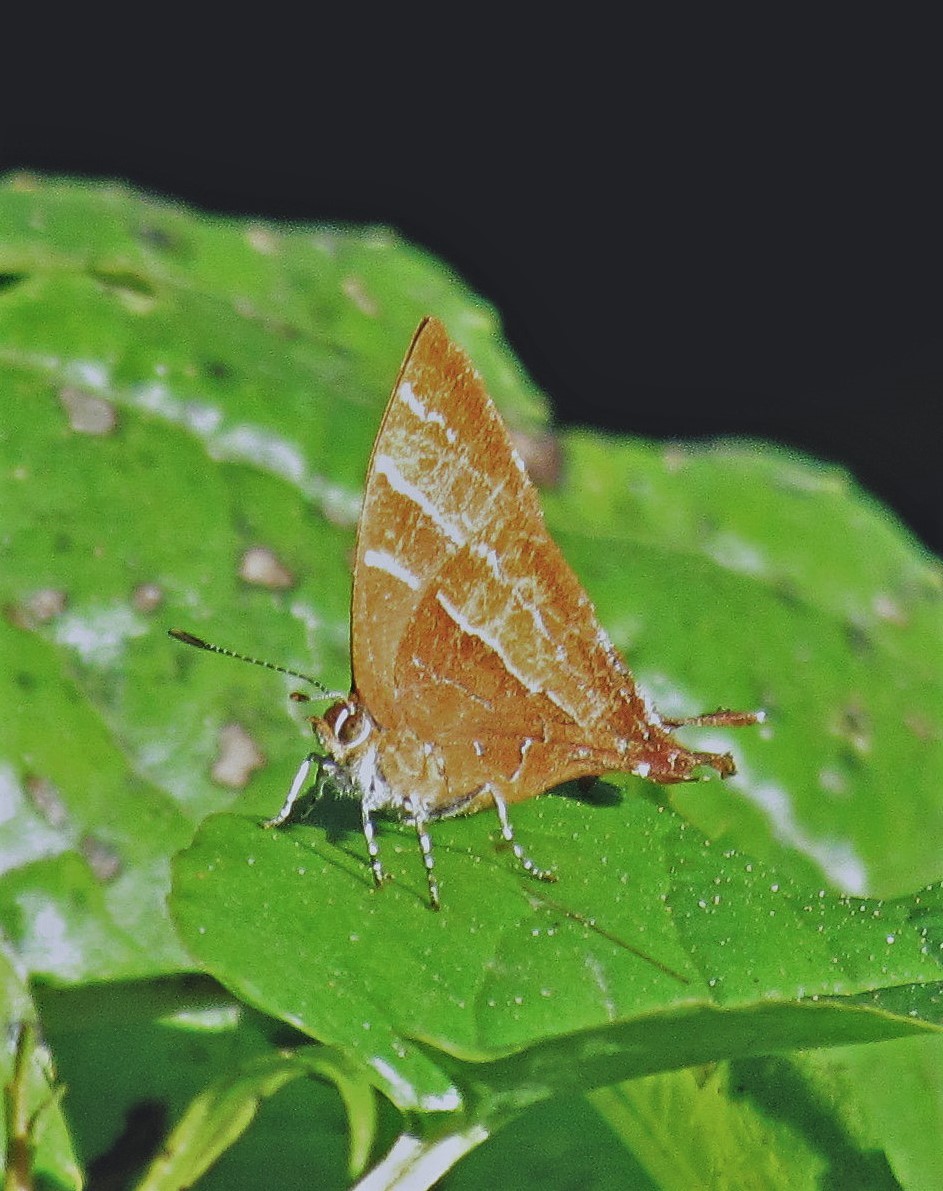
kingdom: Animalia
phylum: Arthropoda
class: Insecta
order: Lepidoptera
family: Lycaenidae
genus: Micandra
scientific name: Micandra sylvana
